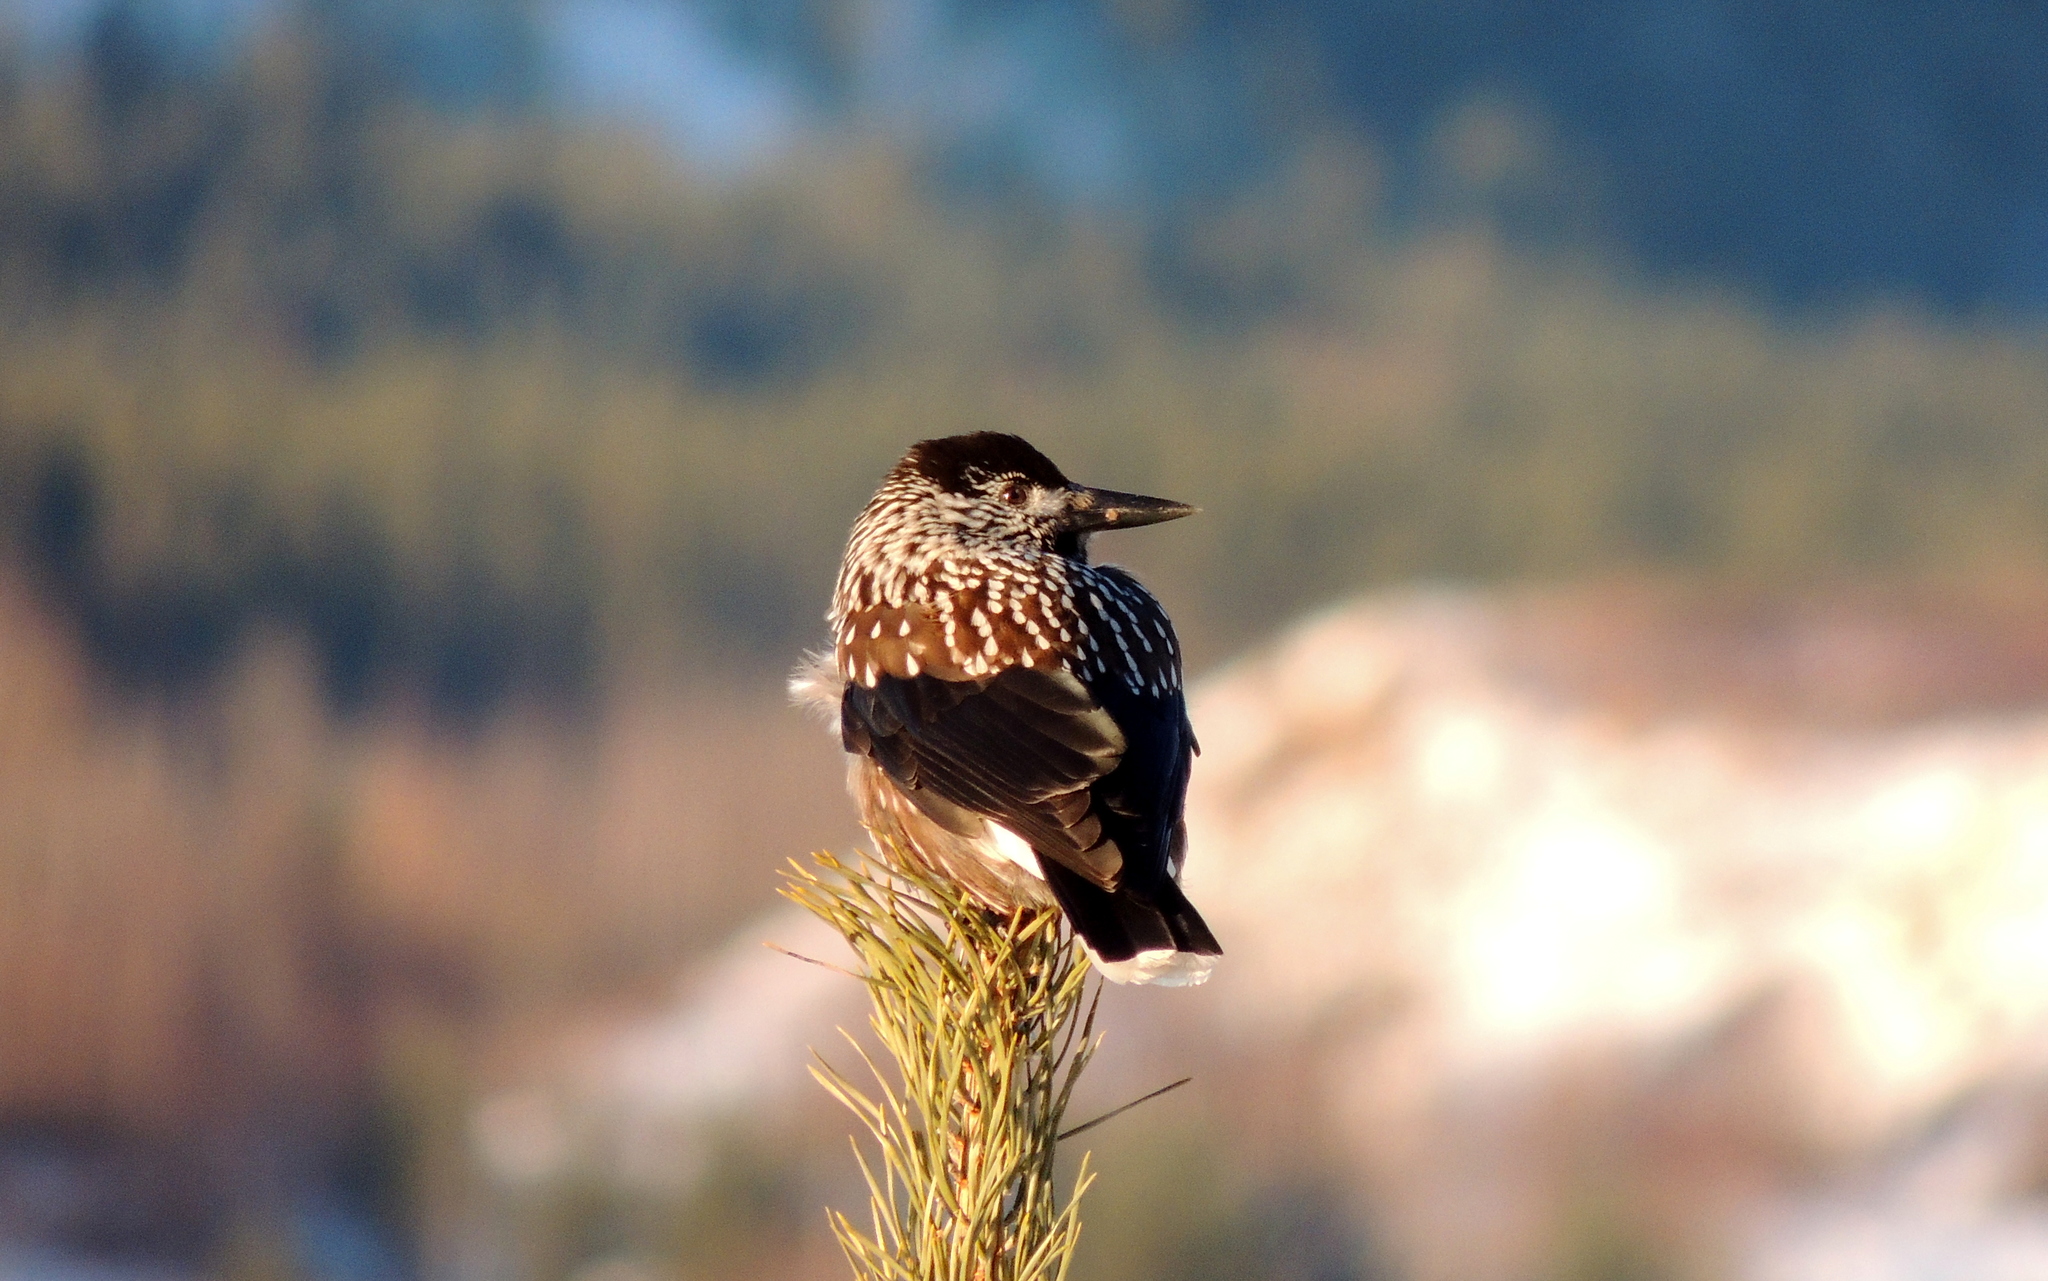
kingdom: Animalia
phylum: Chordata
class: Aves
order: Passeriformes
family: Corvidae
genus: Nucifraga
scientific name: Nucifraga caryocatactes
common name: Spotted nutcracker
